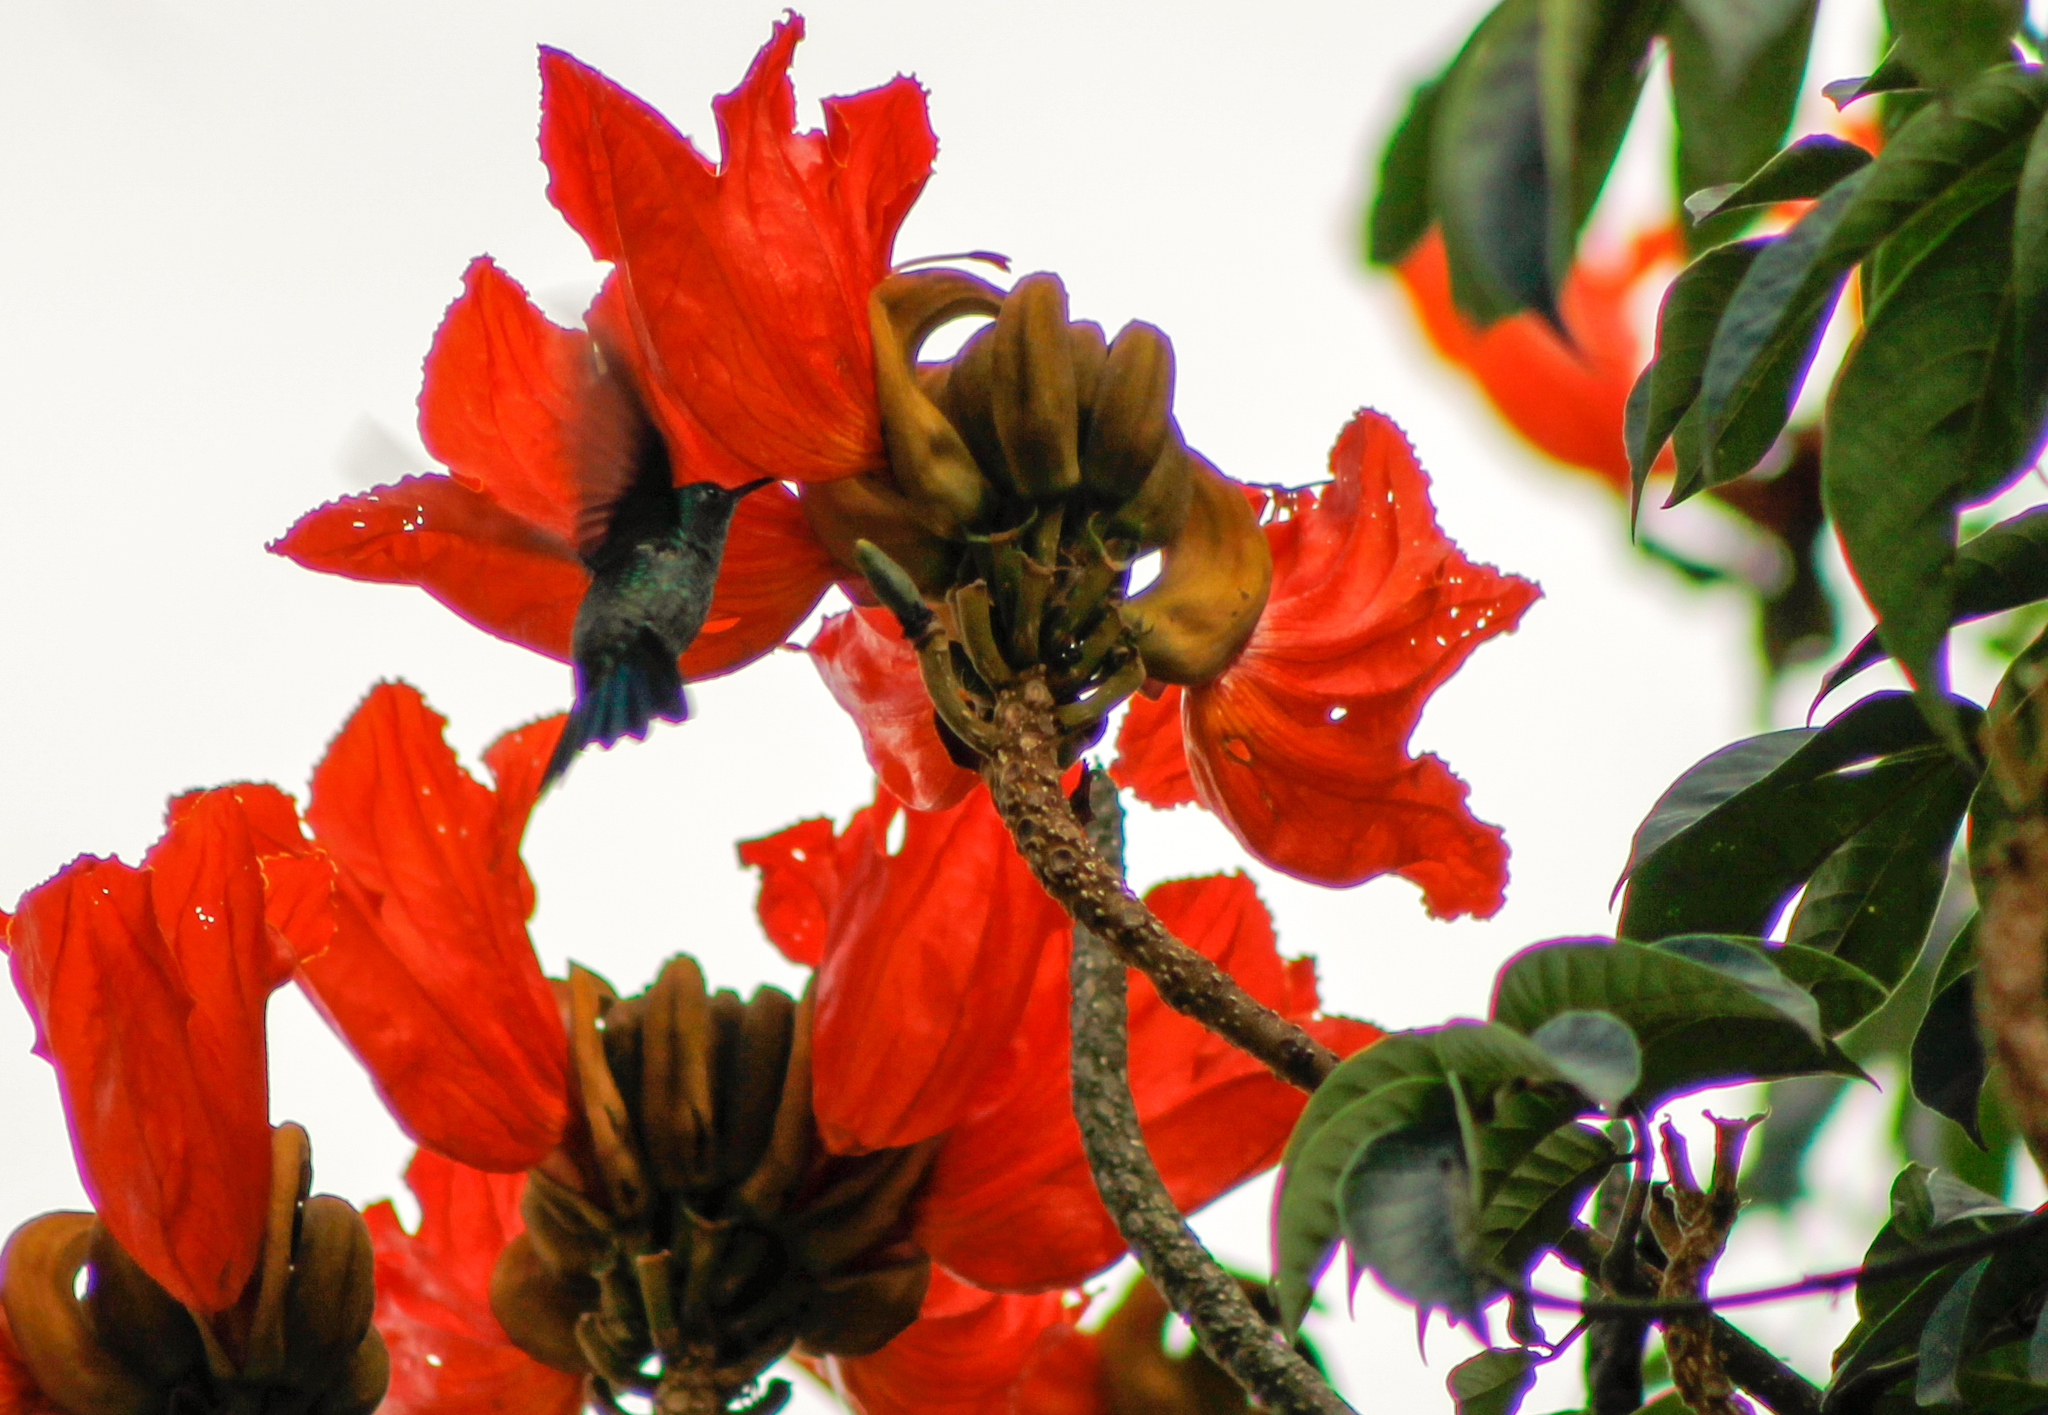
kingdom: Animalia
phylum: Chordata
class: Aves
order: Apodiformes
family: Trochilidae
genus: Saucerottia
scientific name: Saucerottia saucerottei
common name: Steely-vented hummingbird
